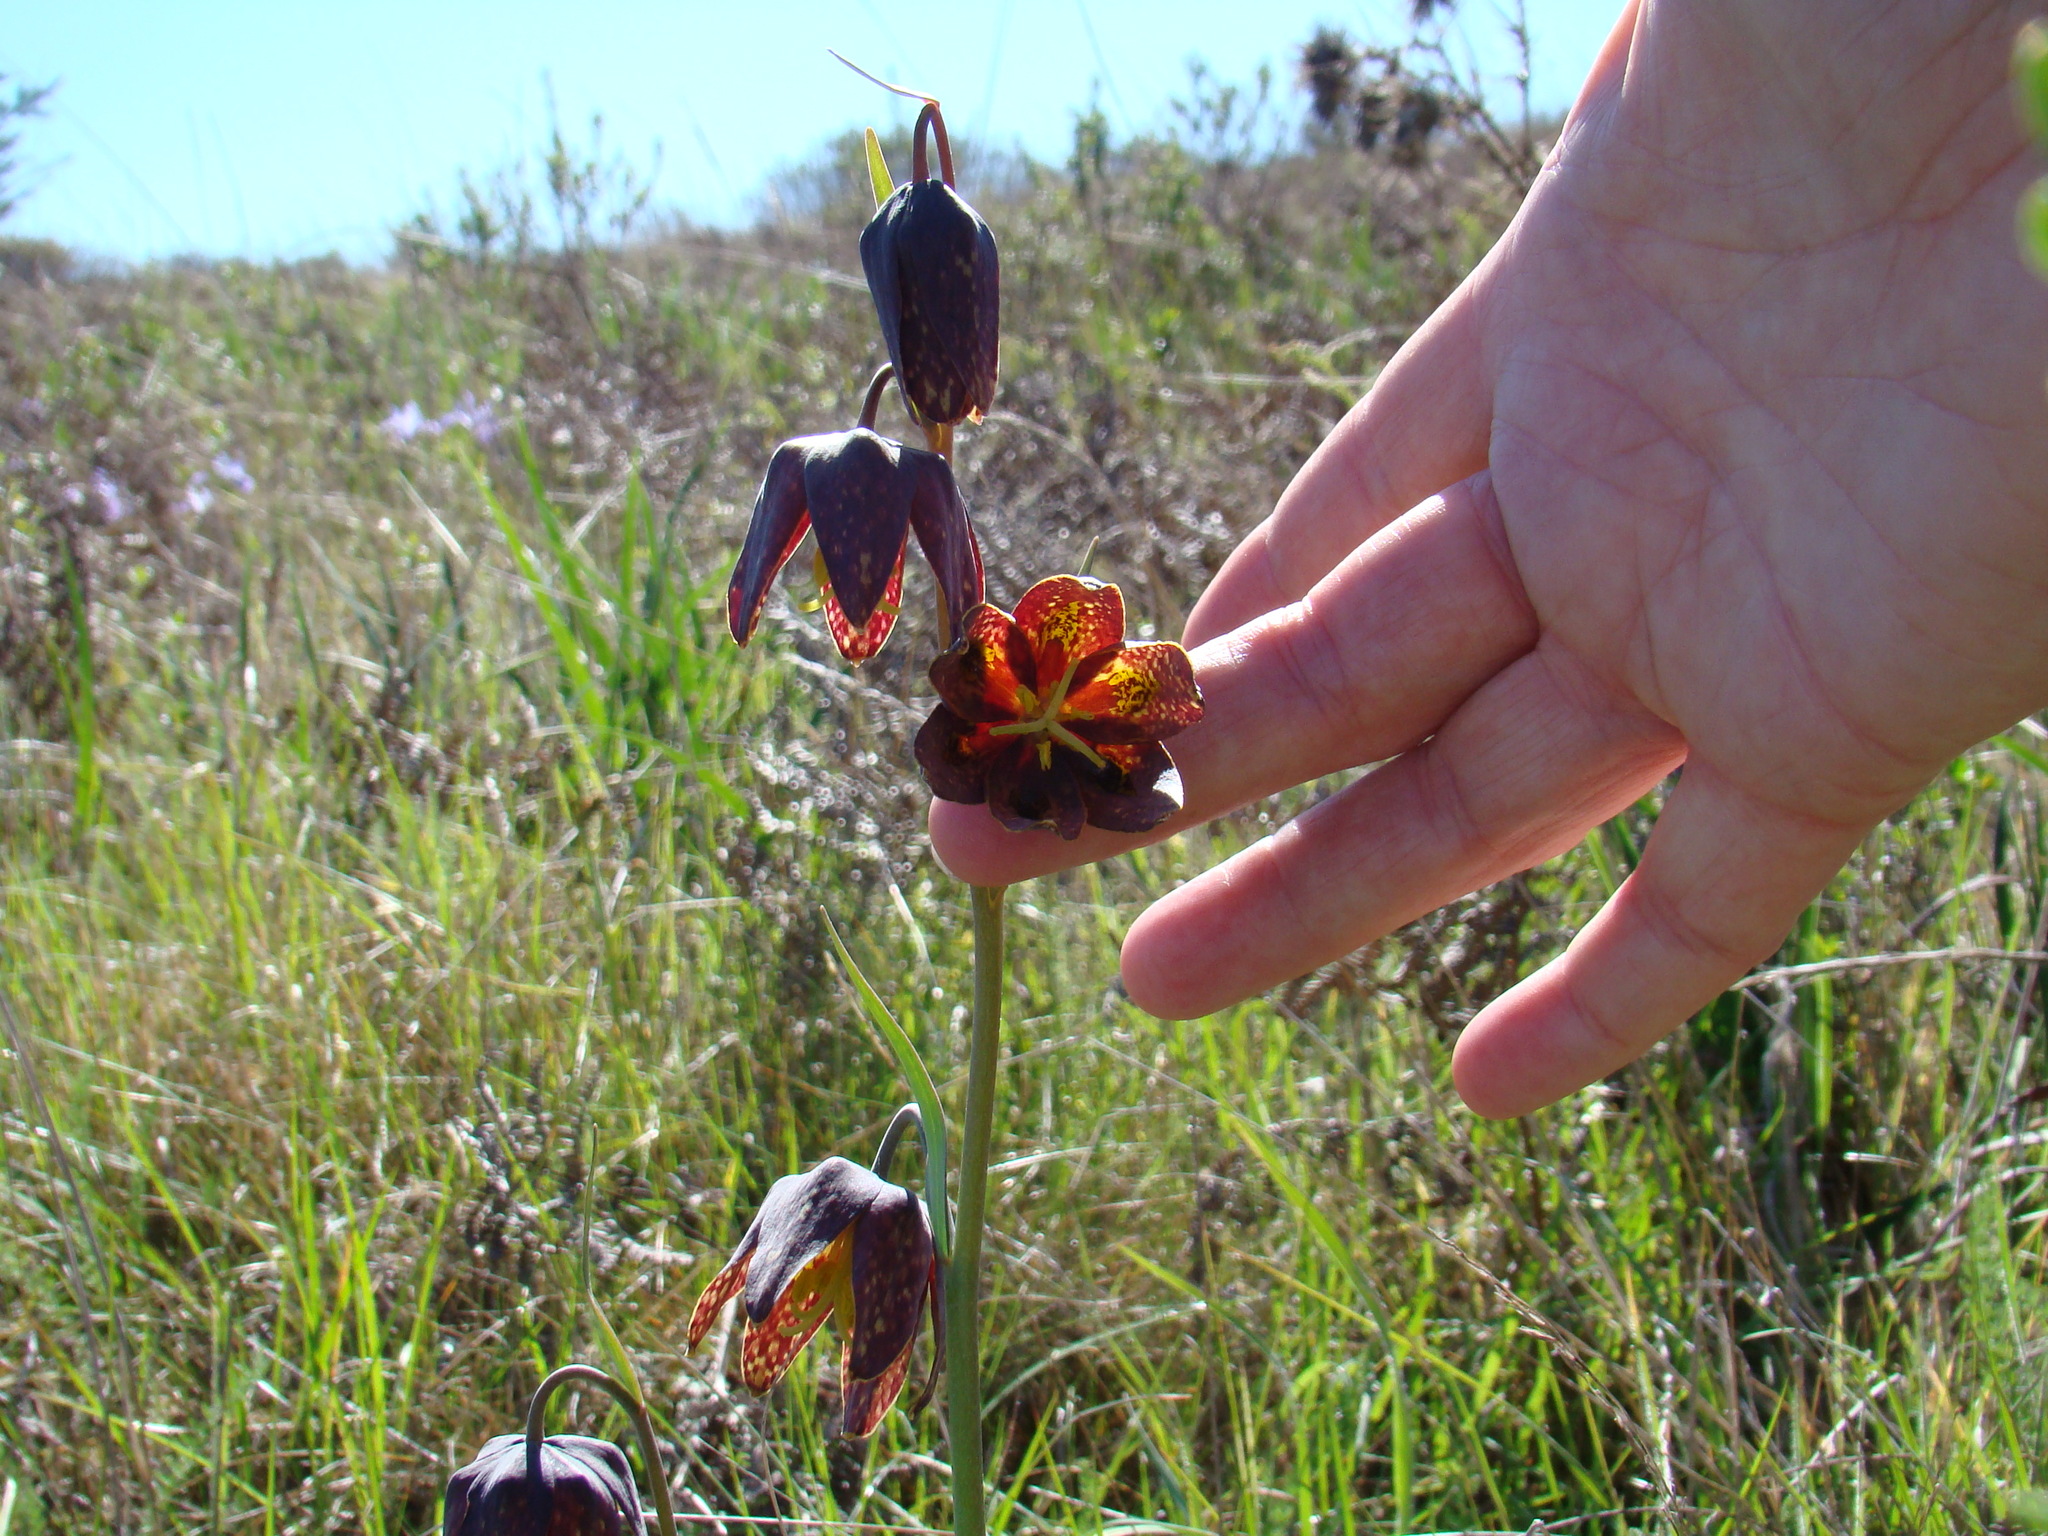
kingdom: Plantae
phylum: Tracheophyta
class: Liliopsida
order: Liliales
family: Liliaceae
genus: Fritillaria
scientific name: Fritillaria affinis
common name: Ojai fritillary
